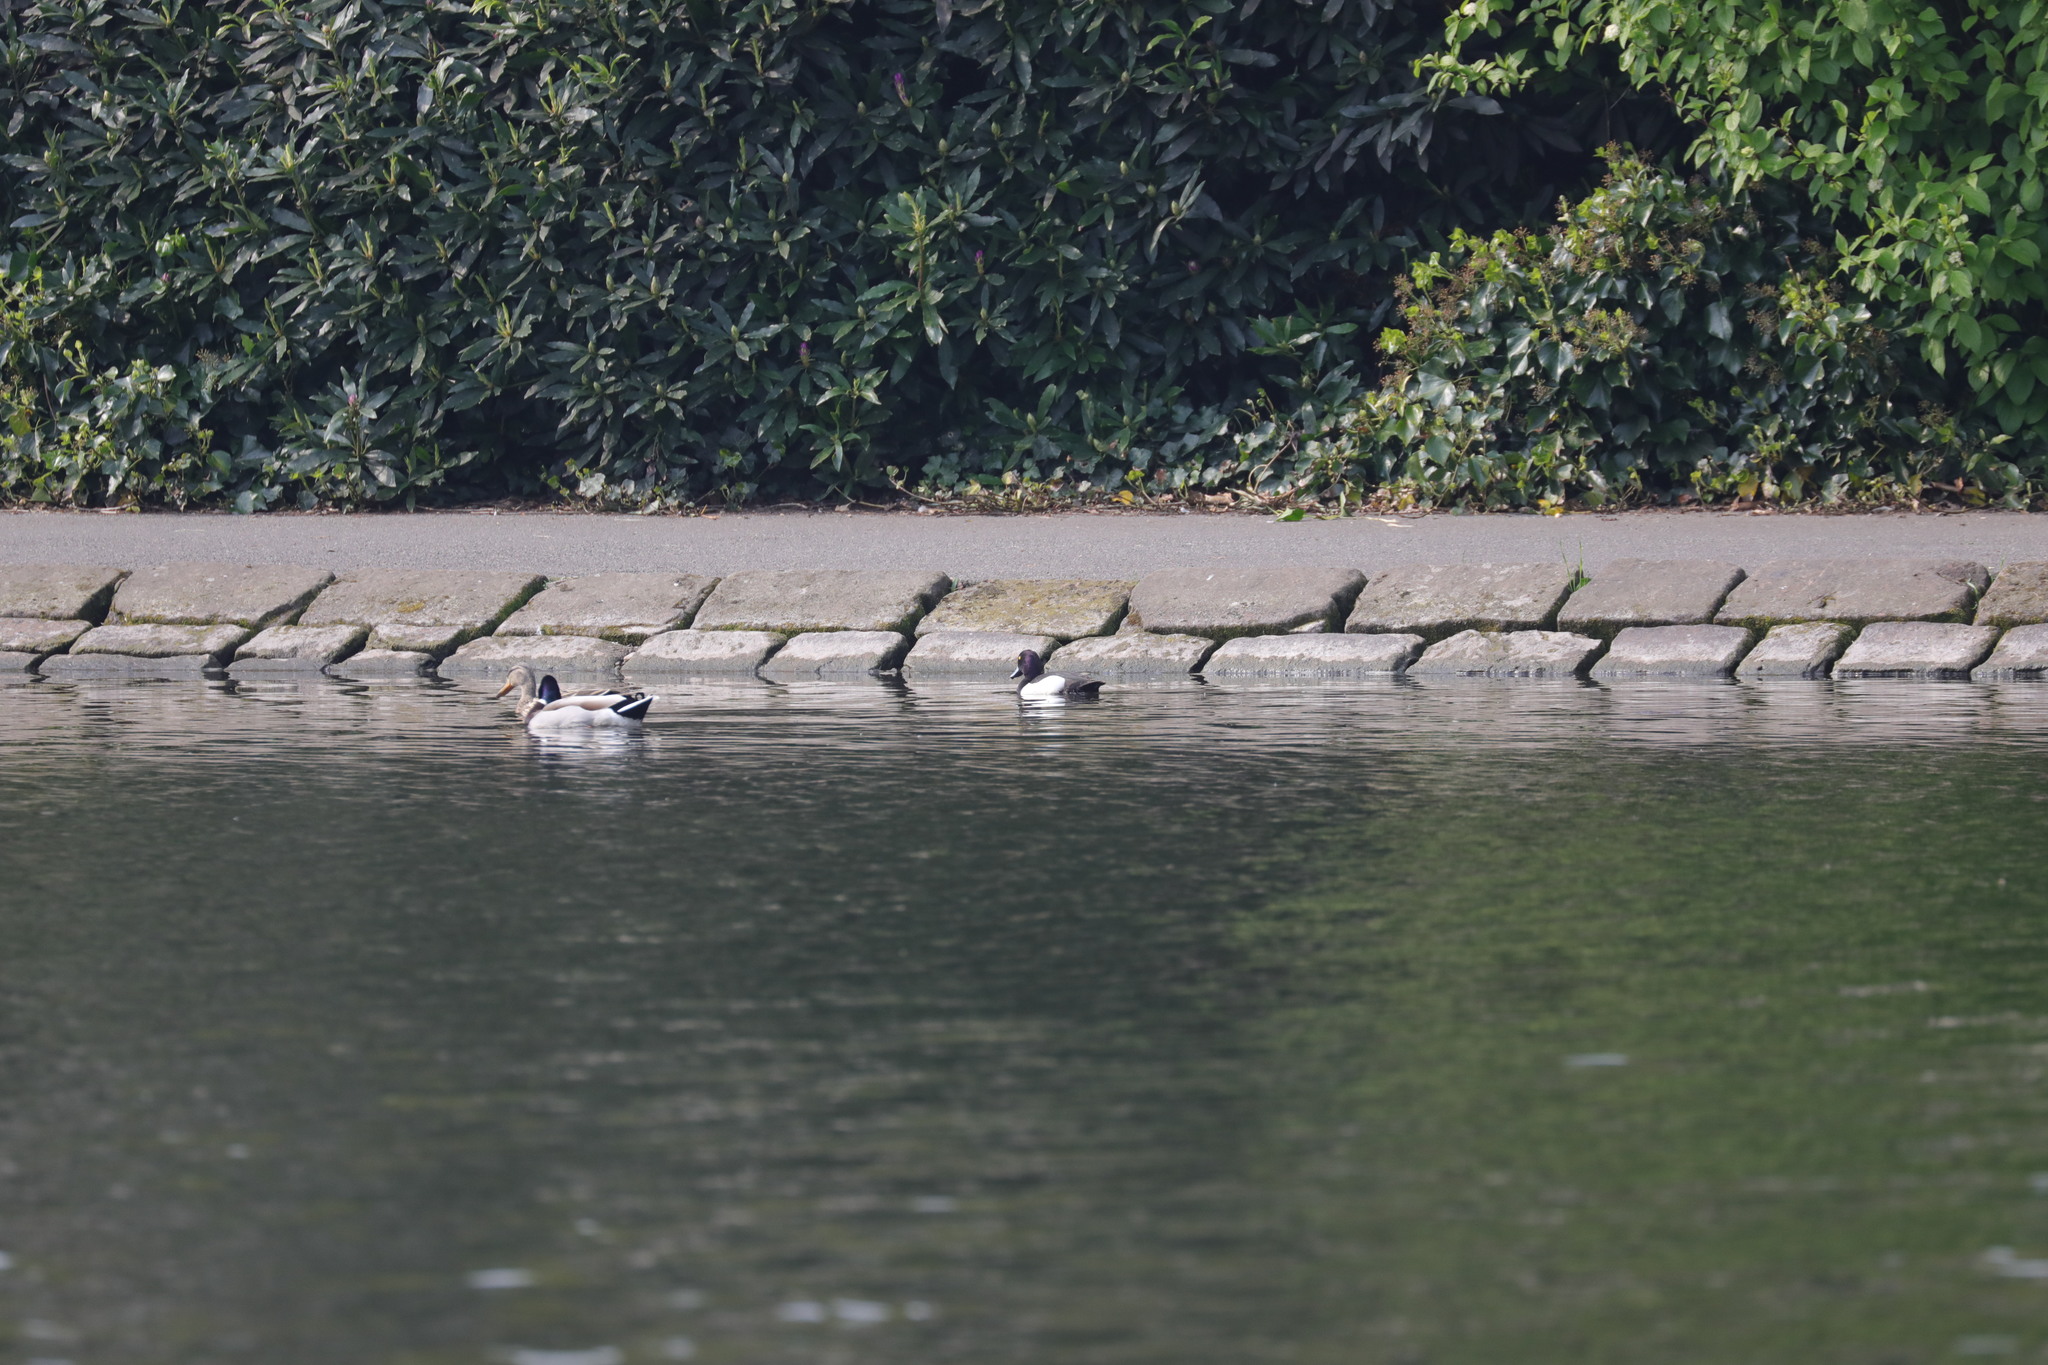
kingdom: Animalia
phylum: Chordata
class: Aves
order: Anseriformes
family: Anatidae
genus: Aythya
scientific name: Aythya fuligula
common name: Tufted duck
